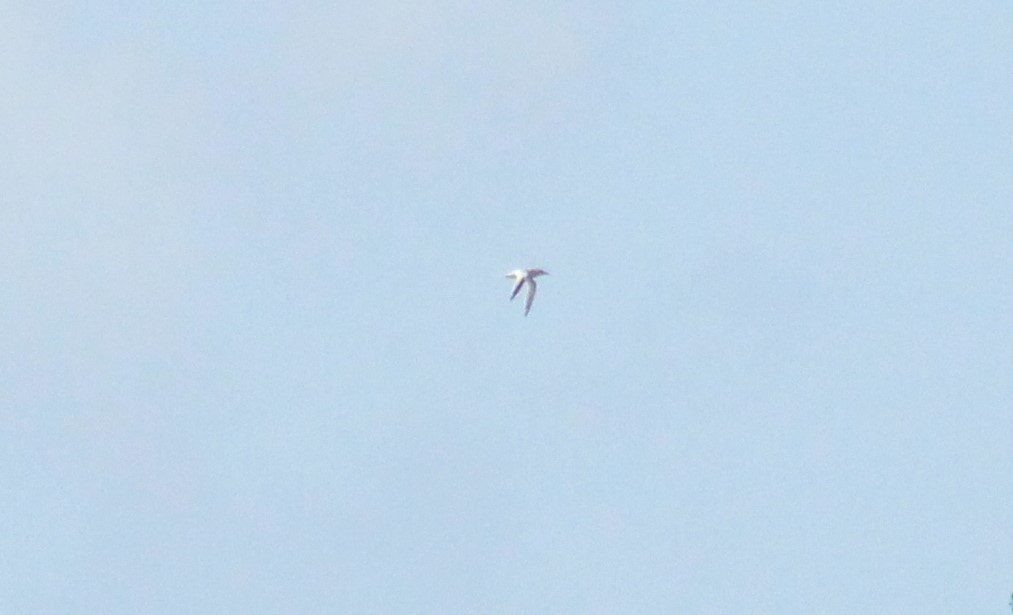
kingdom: Animalia
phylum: Chordata
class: Aves
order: Phaethontiformes
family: Phaethontidae
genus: Phaethon
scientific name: Phaethon aethereus
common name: Red-billed tropicbird
